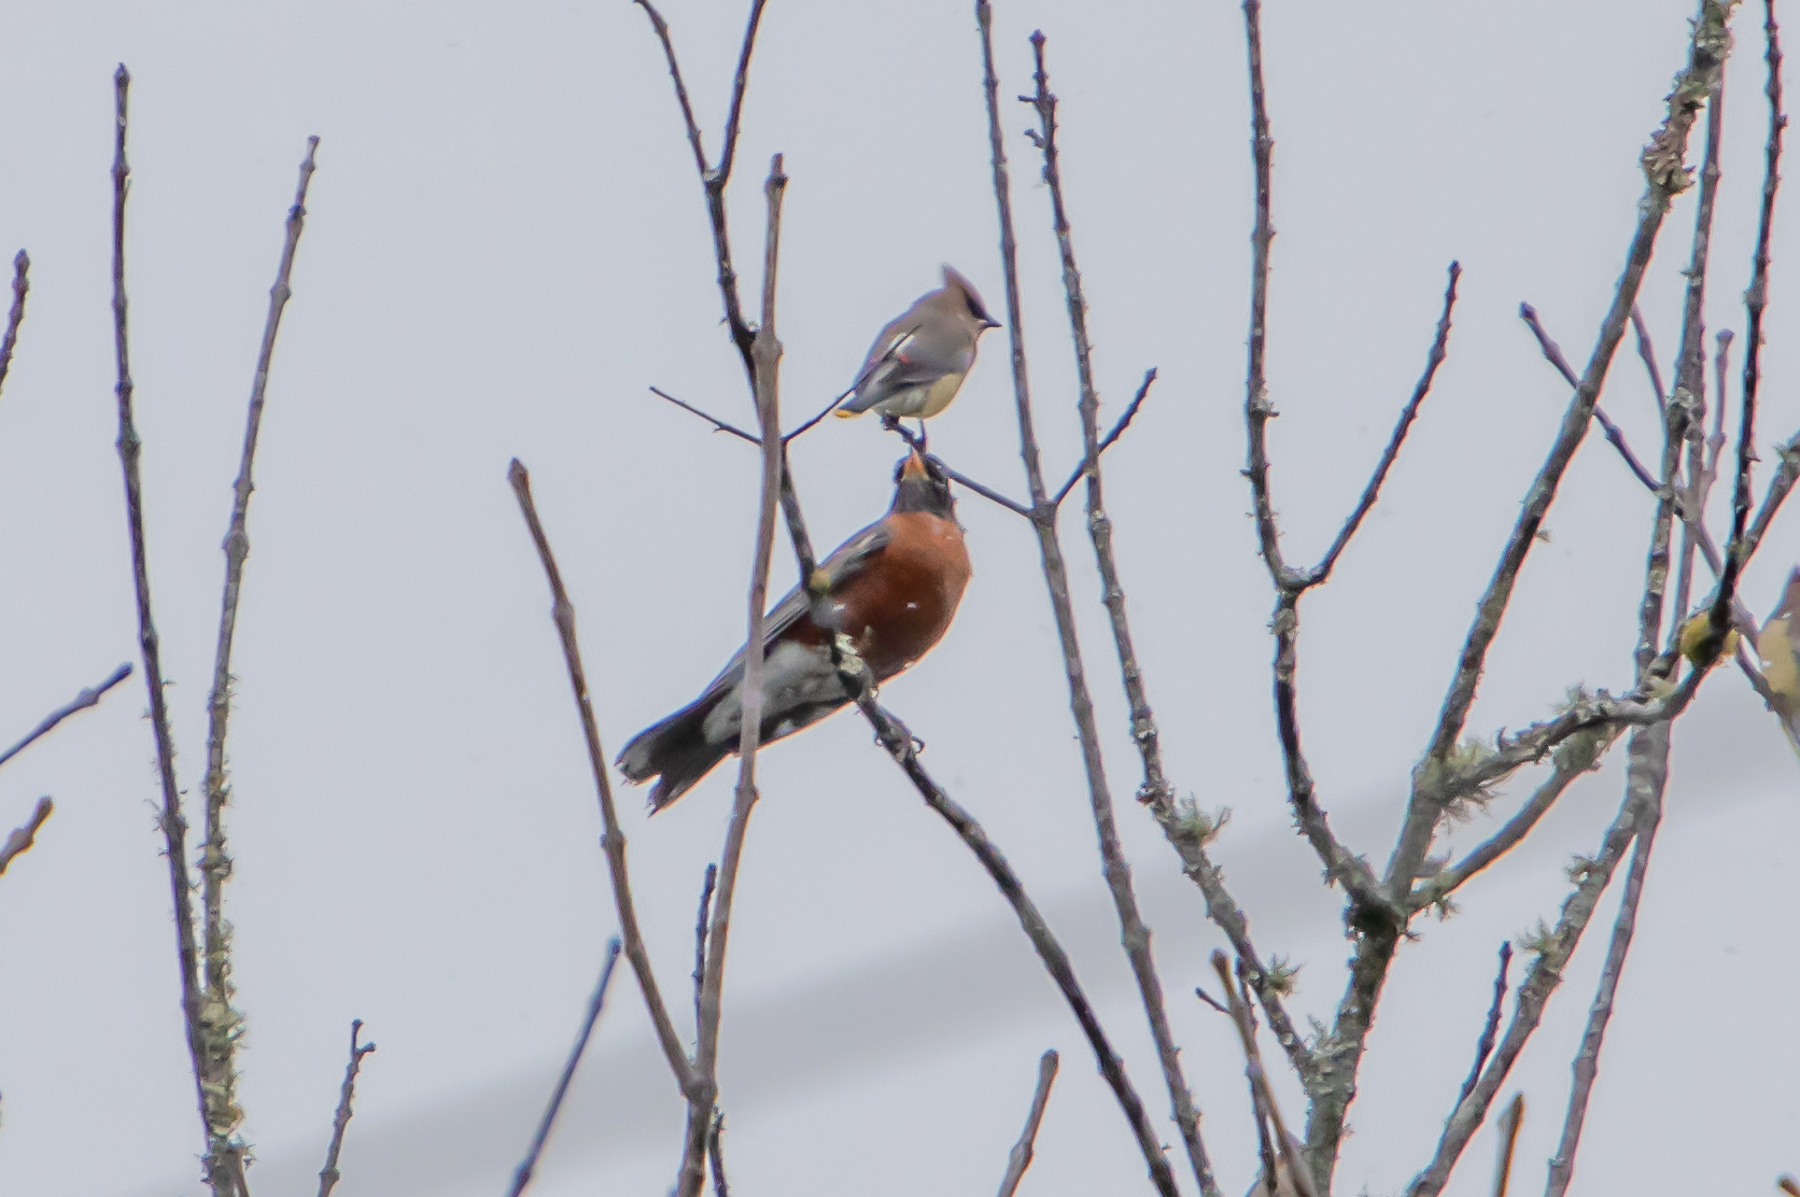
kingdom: Animalia
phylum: Chordata
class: Aves
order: Passeriformes
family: Turdidae
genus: Turdus
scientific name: Turdus migratorius
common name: American robin
